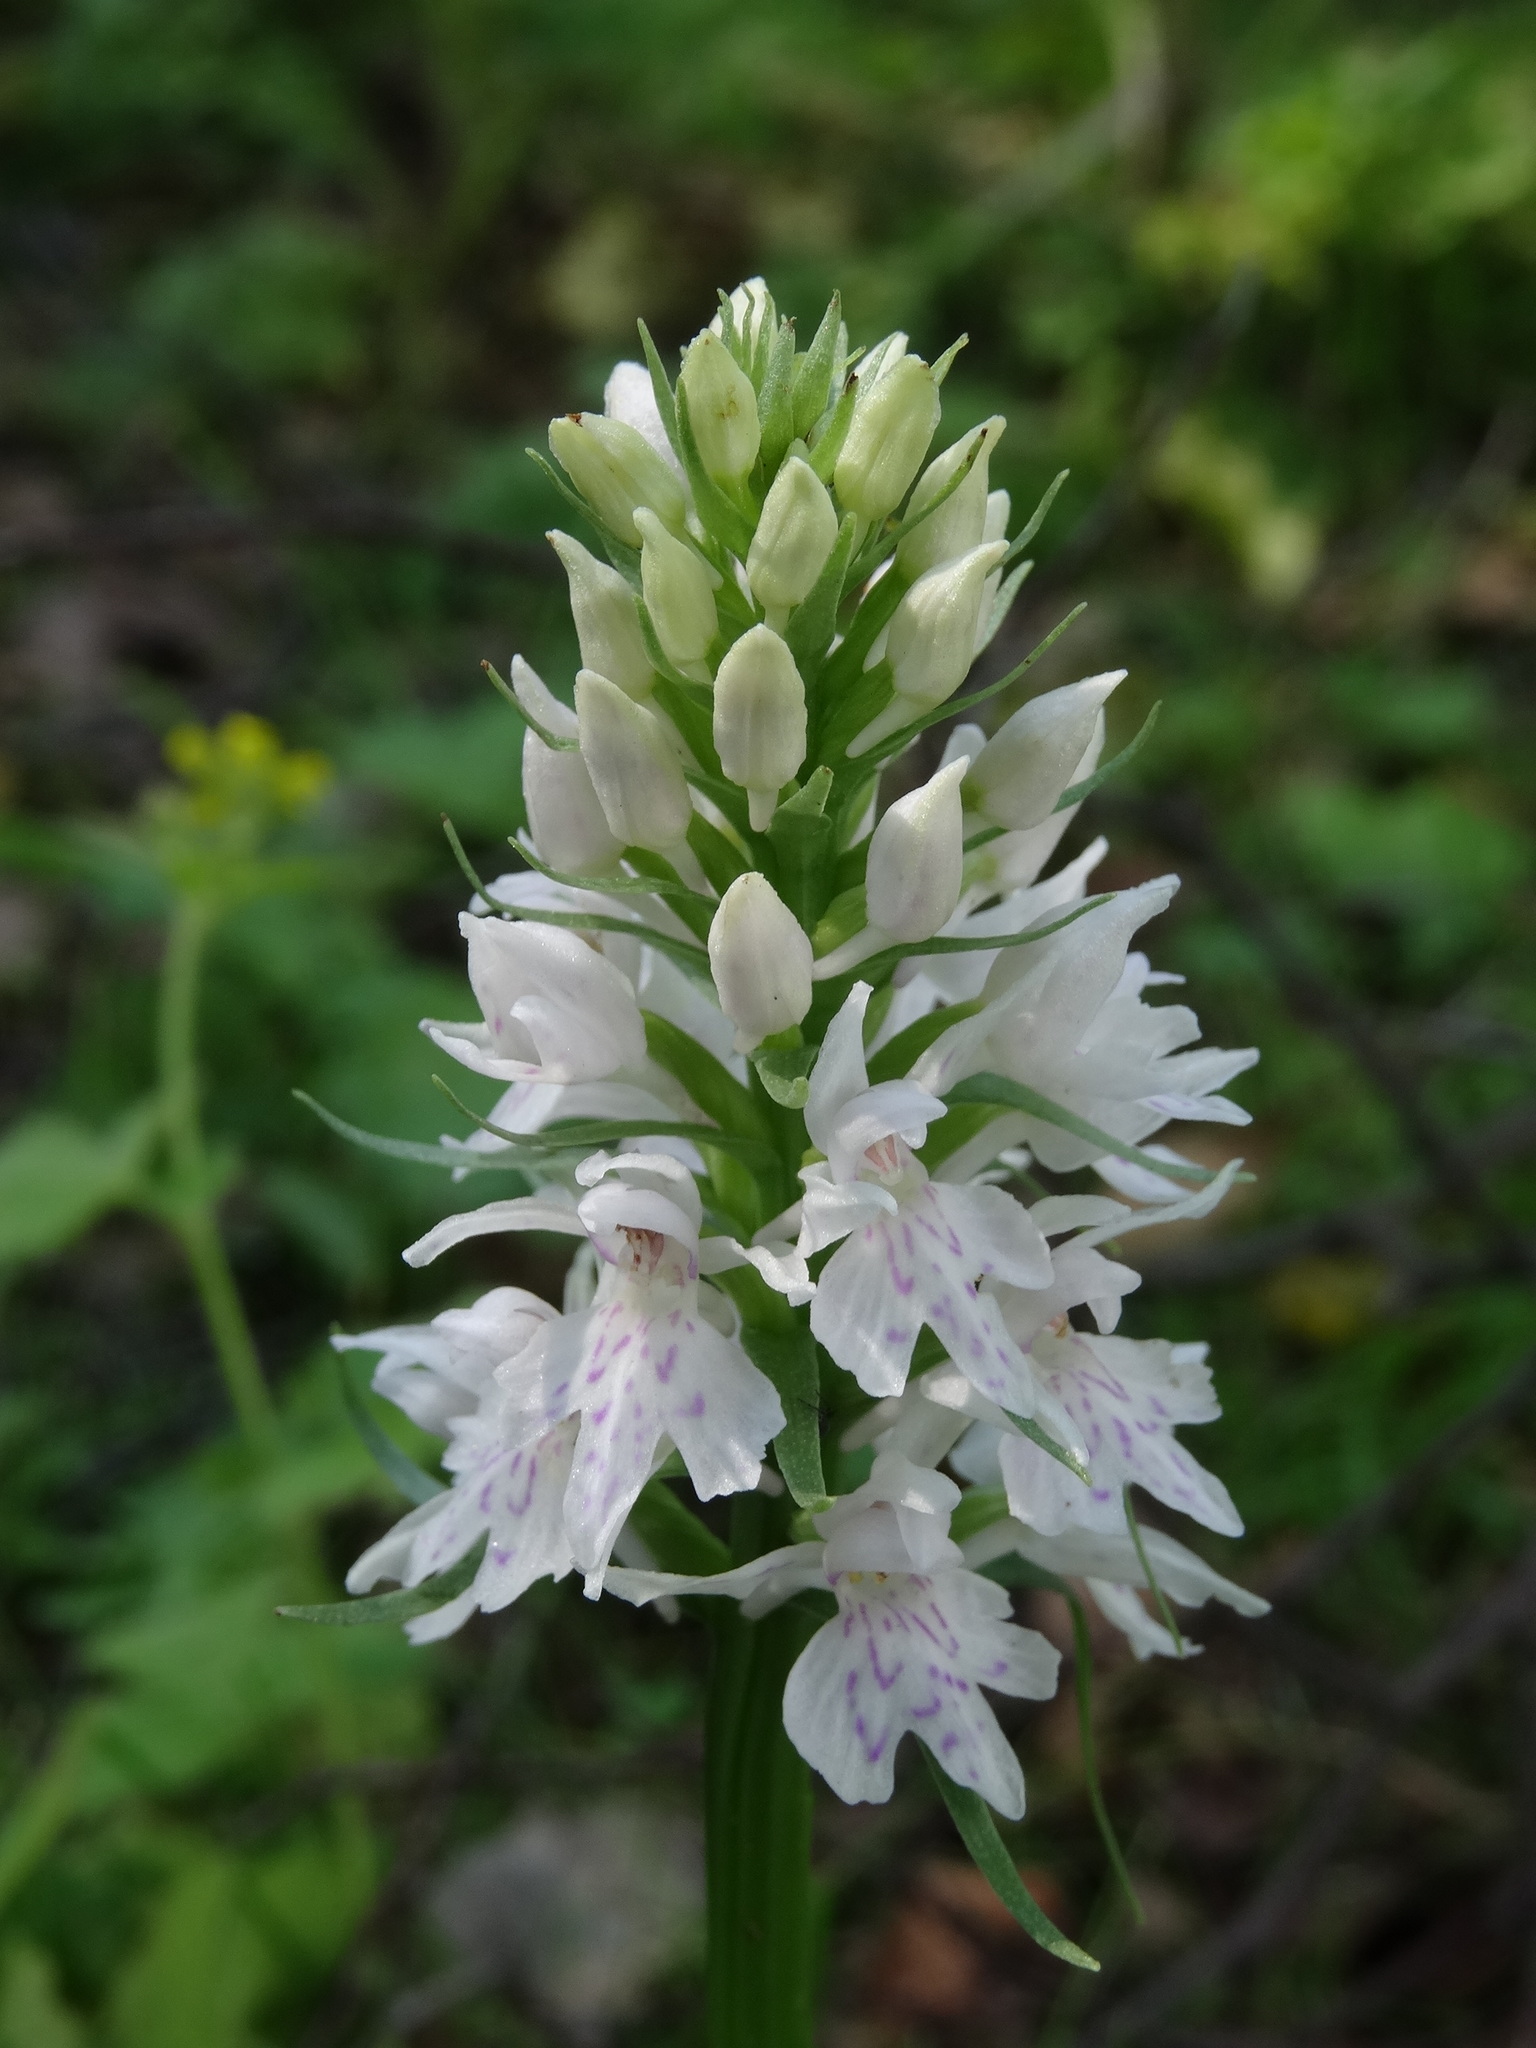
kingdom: Plantae
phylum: Tracheophyta
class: Liliopsida
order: Asparagales
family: Orchidaceae
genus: Dactylorhiza
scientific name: Dactylorhiza maculata
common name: Heath spotted-orchid
